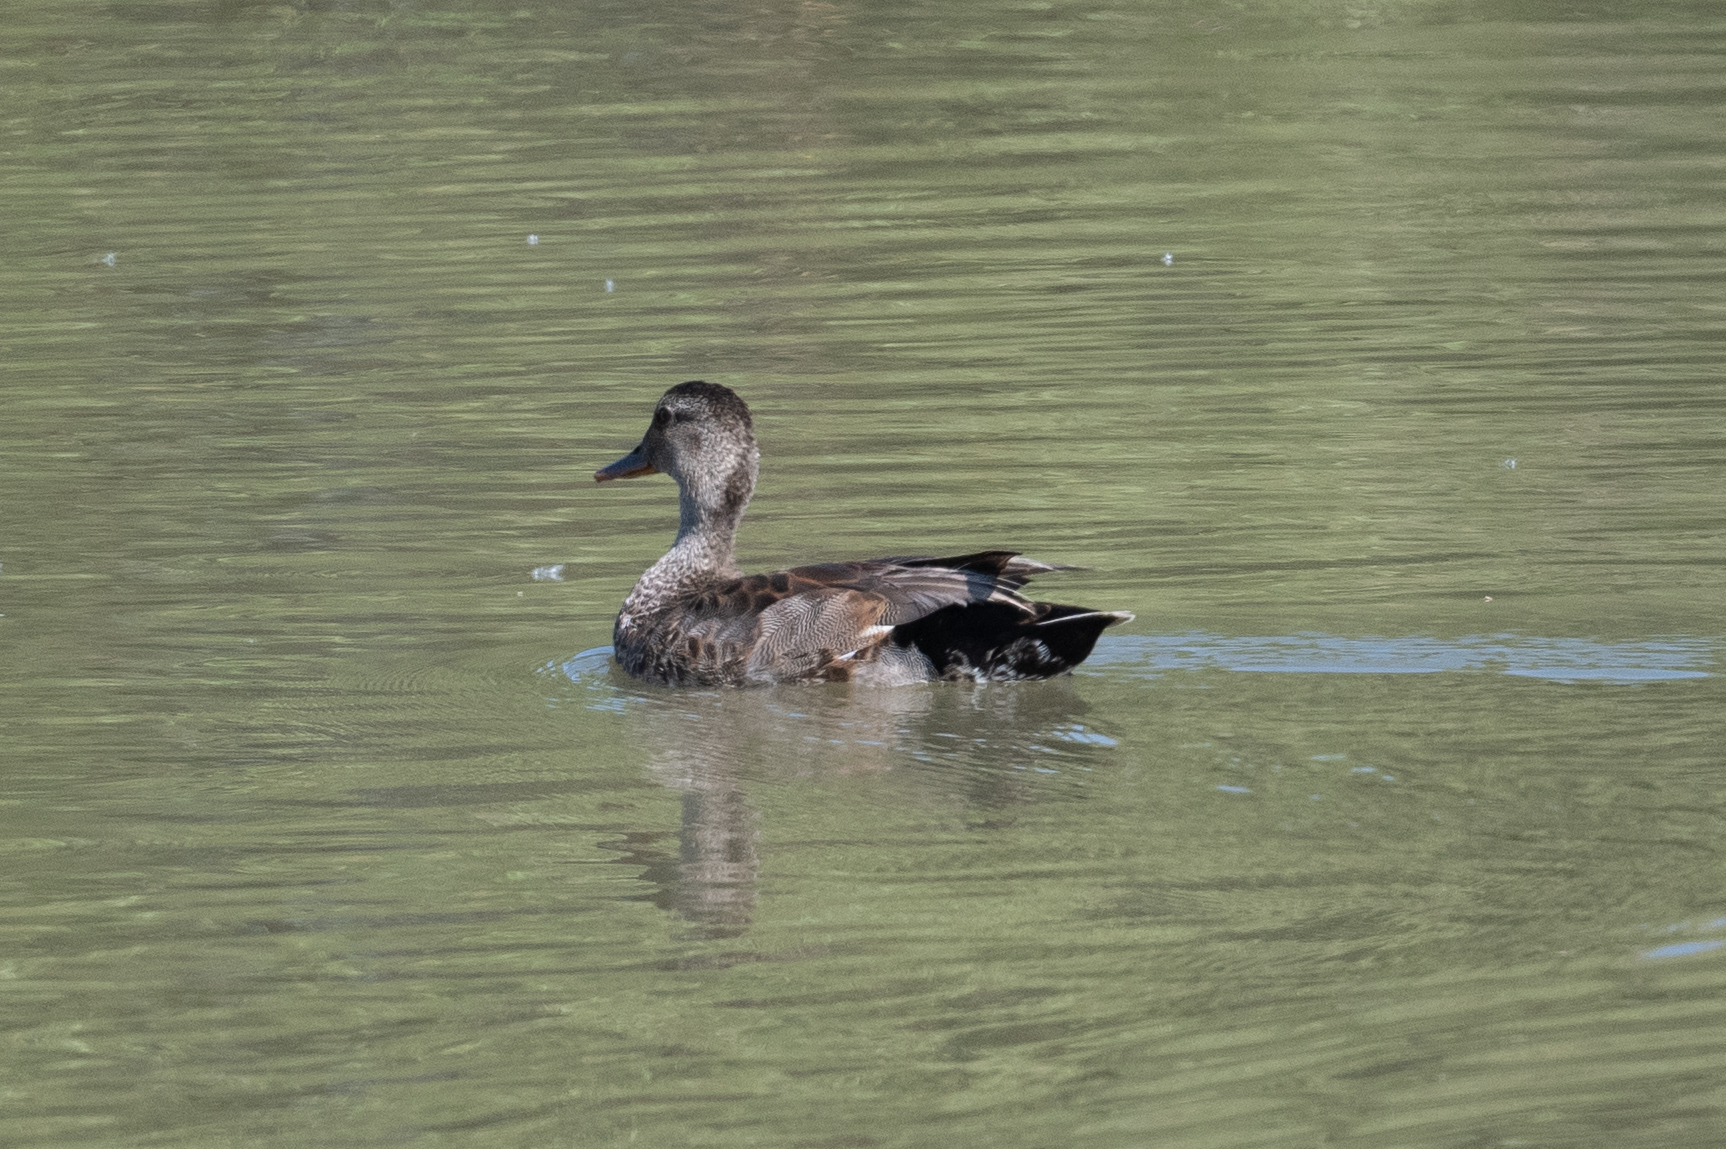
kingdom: Animalia
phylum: Chordata
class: Aves
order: Anseriformes
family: Anatidae
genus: Mareca
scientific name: Mareca strepera
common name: Gadwall
